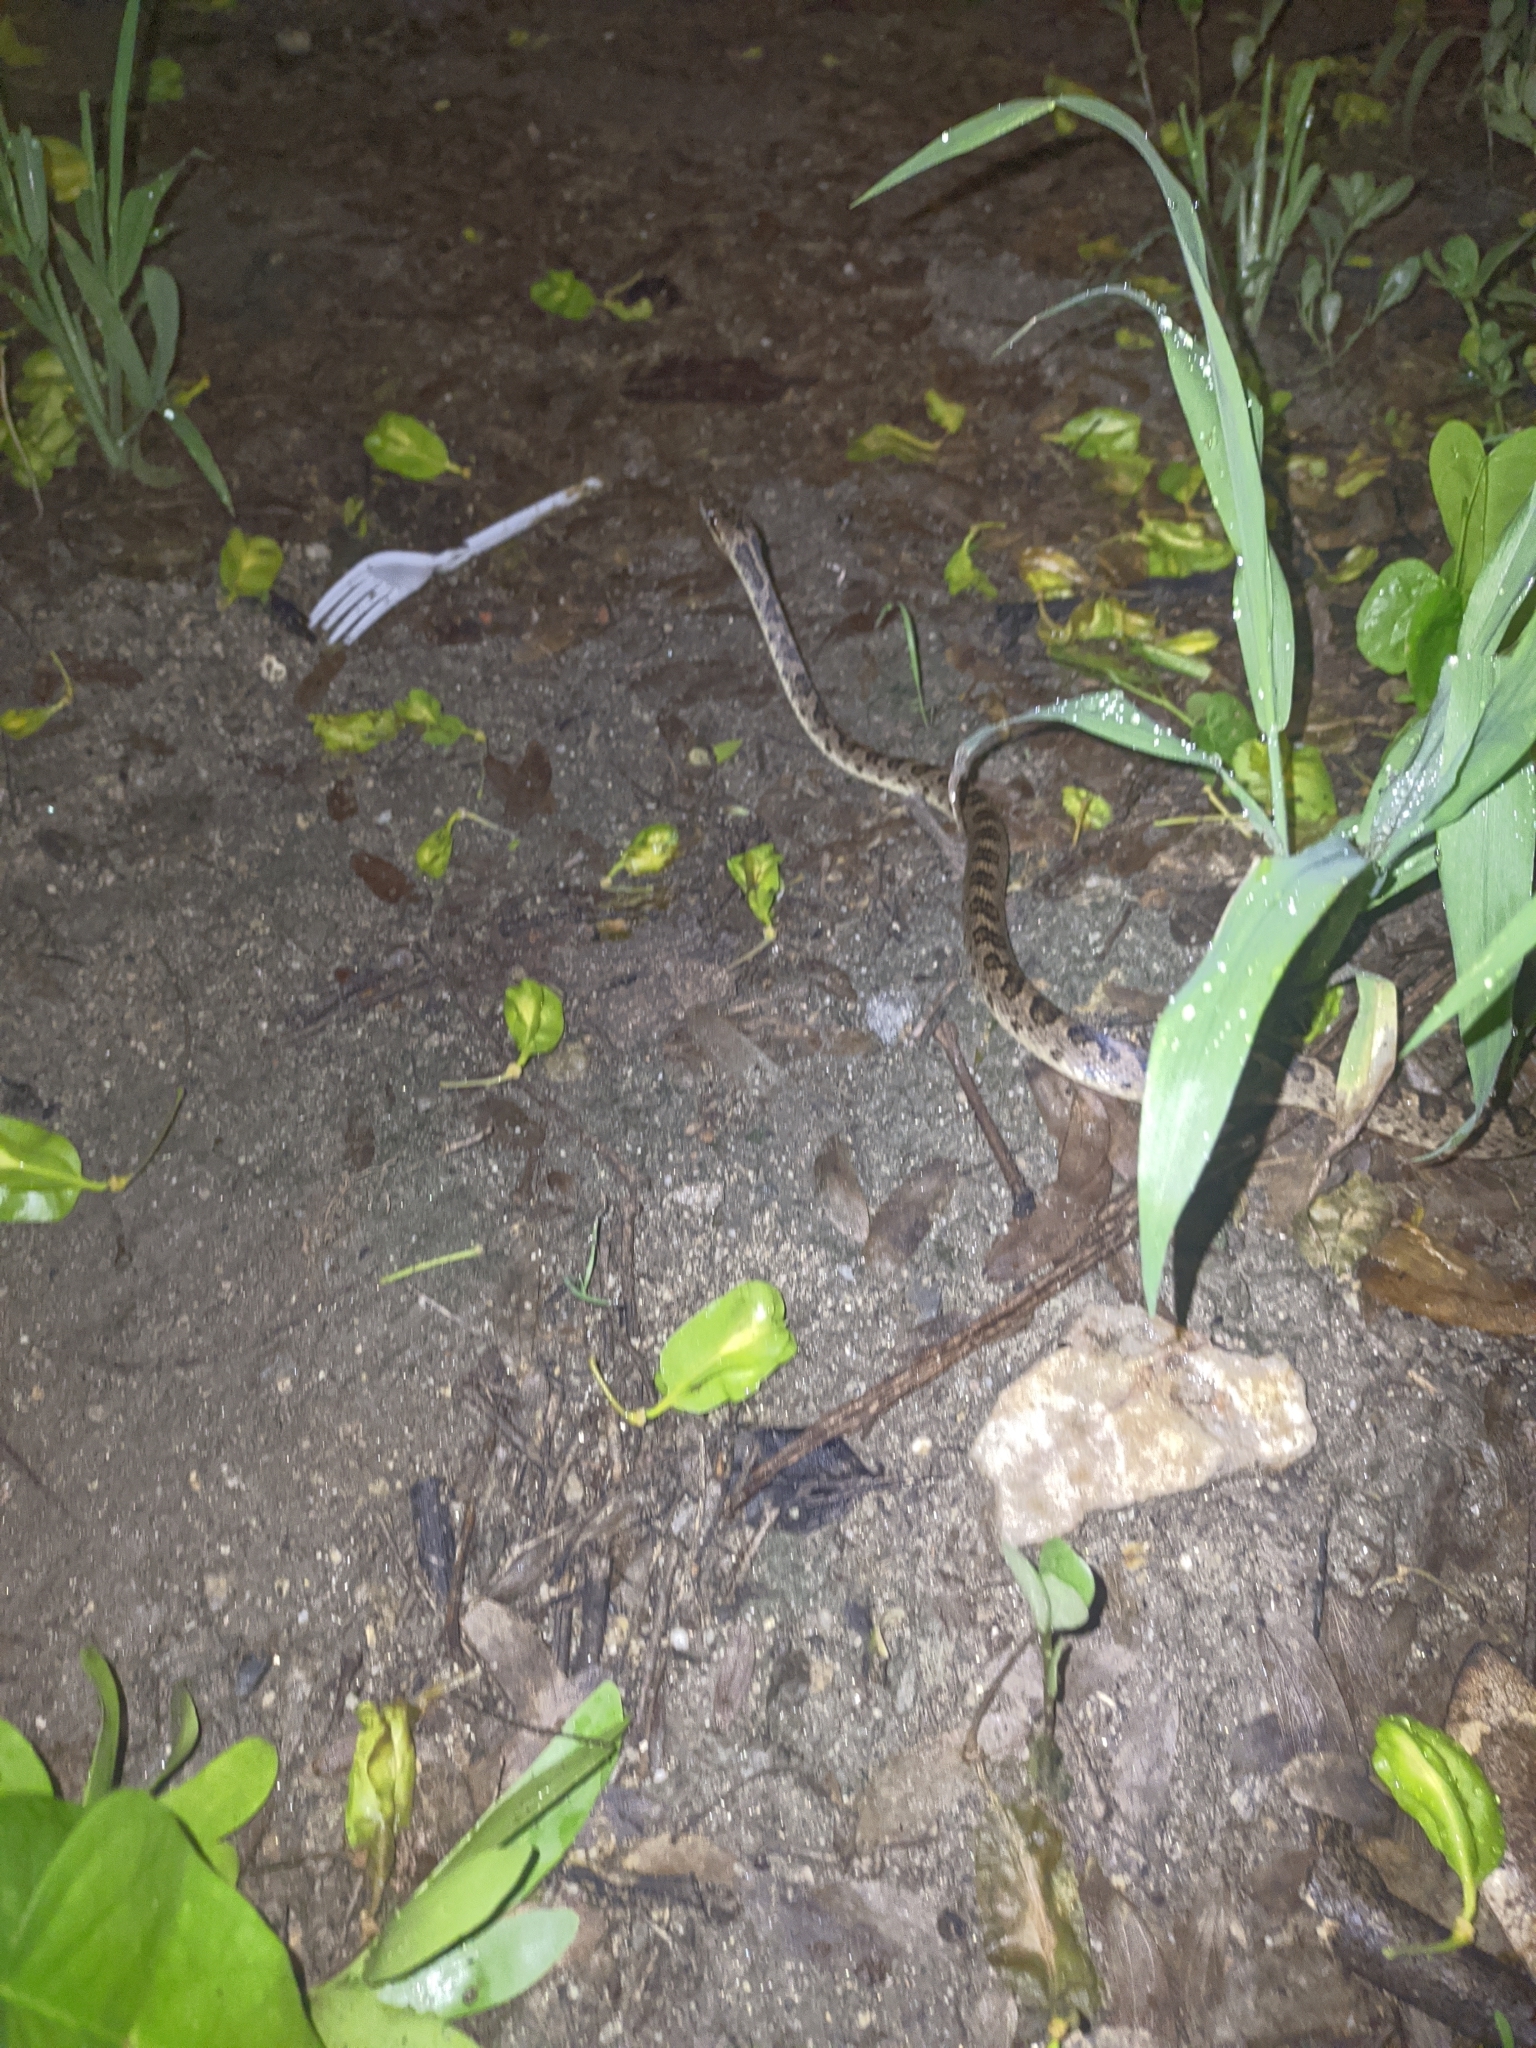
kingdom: Animalia
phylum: Chordata
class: Squamata
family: Colubridae
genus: Leptodeira
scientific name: Leptodeira ashmeadii
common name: Banded cat-eyed snake
